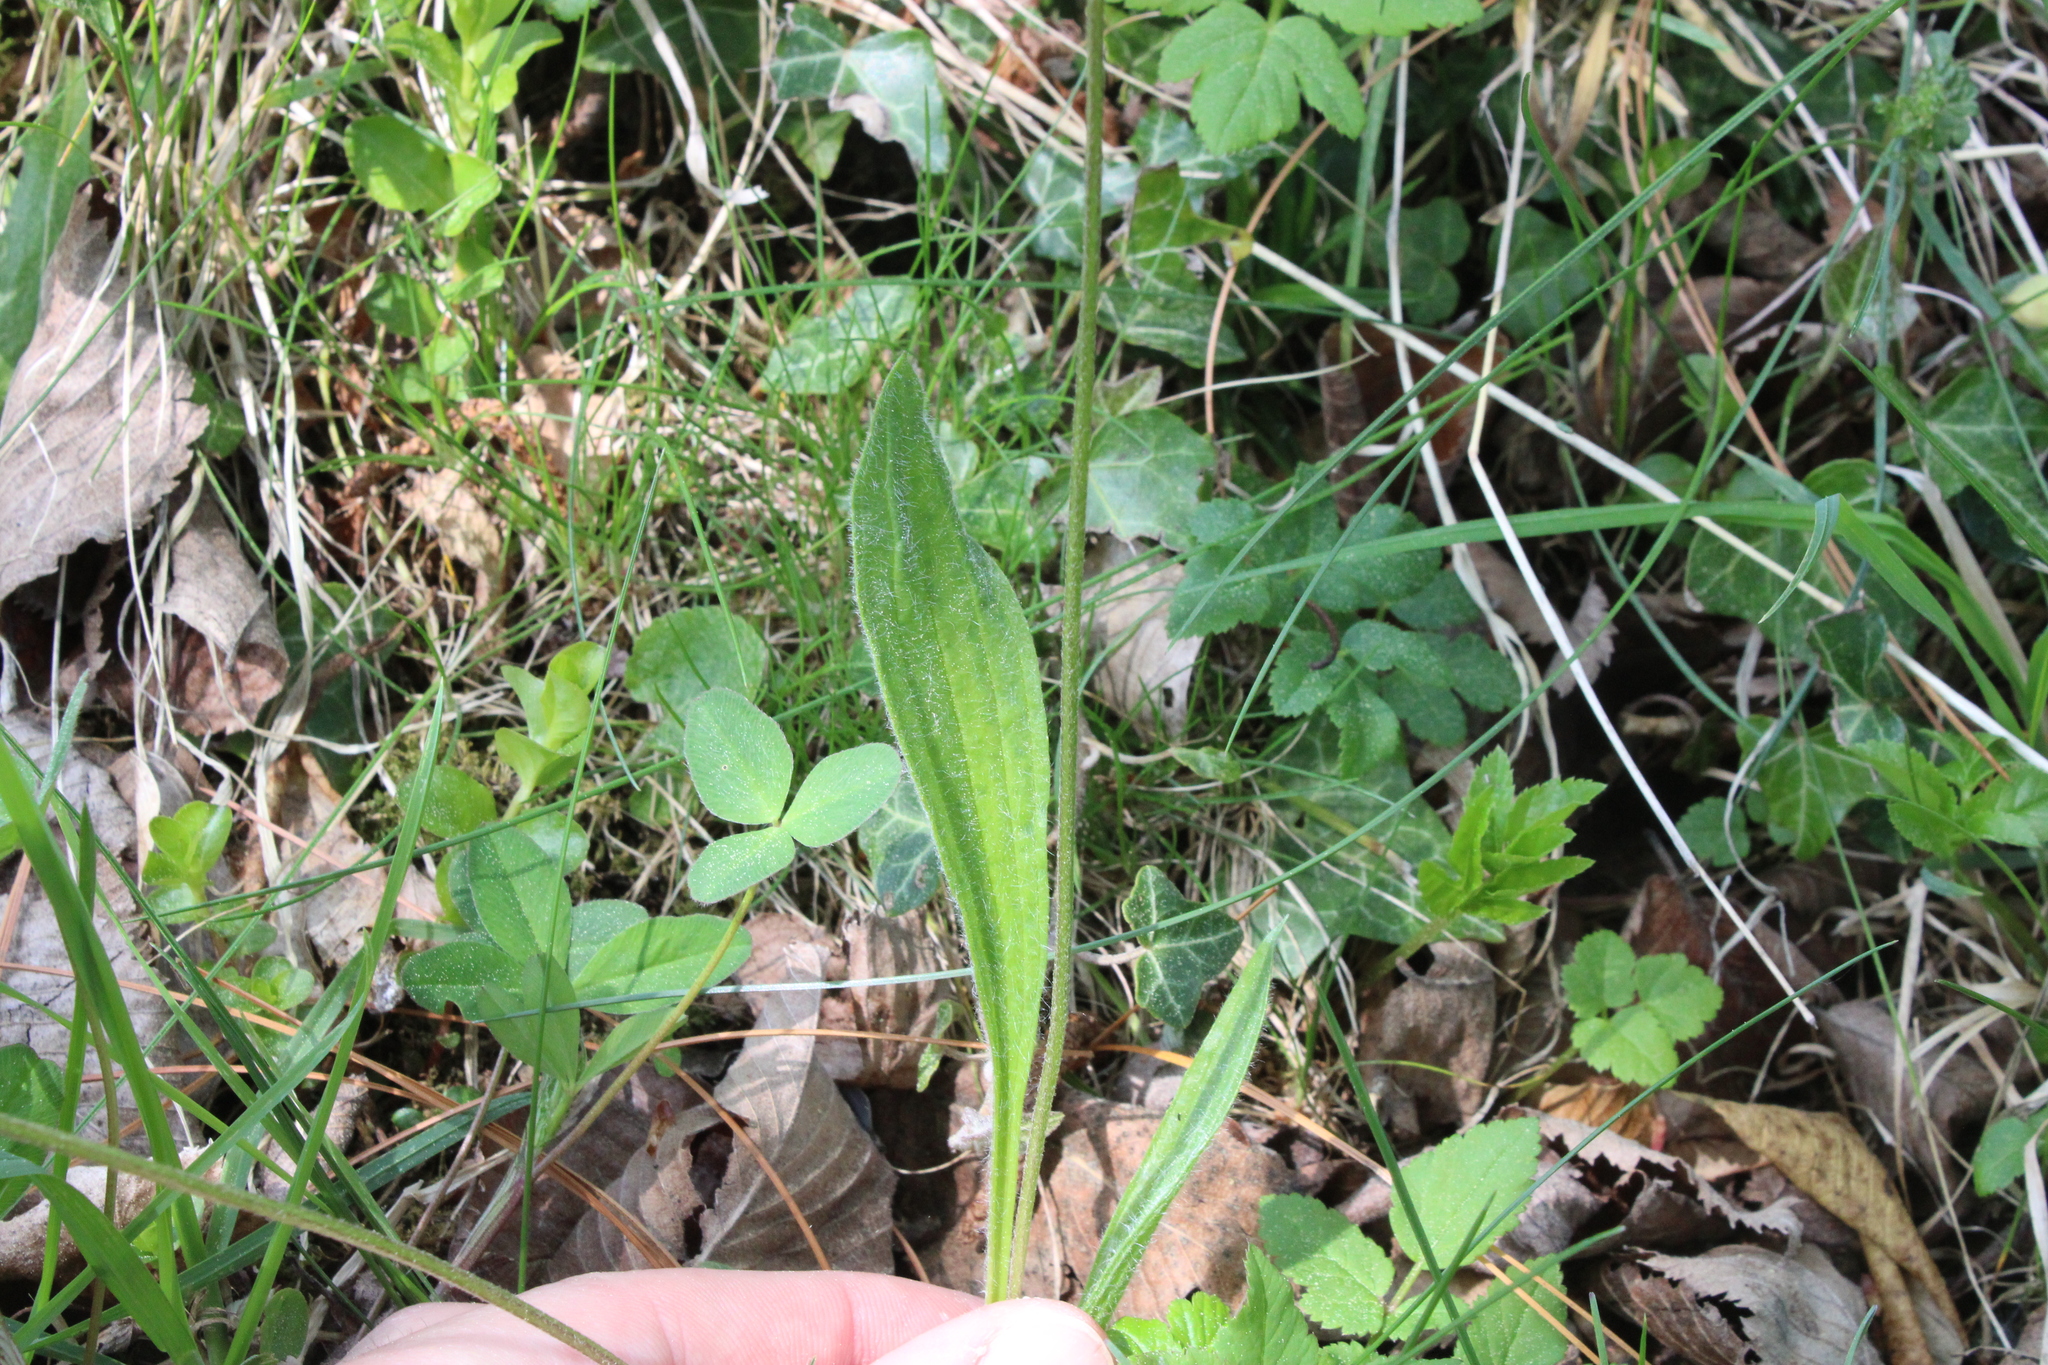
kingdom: Plantae
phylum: Tracheophyta
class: Magnoliopsida
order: Lamiales
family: Plantaginaceae
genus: Plantago
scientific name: Plantago lanceolata
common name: Ribwort plantain
